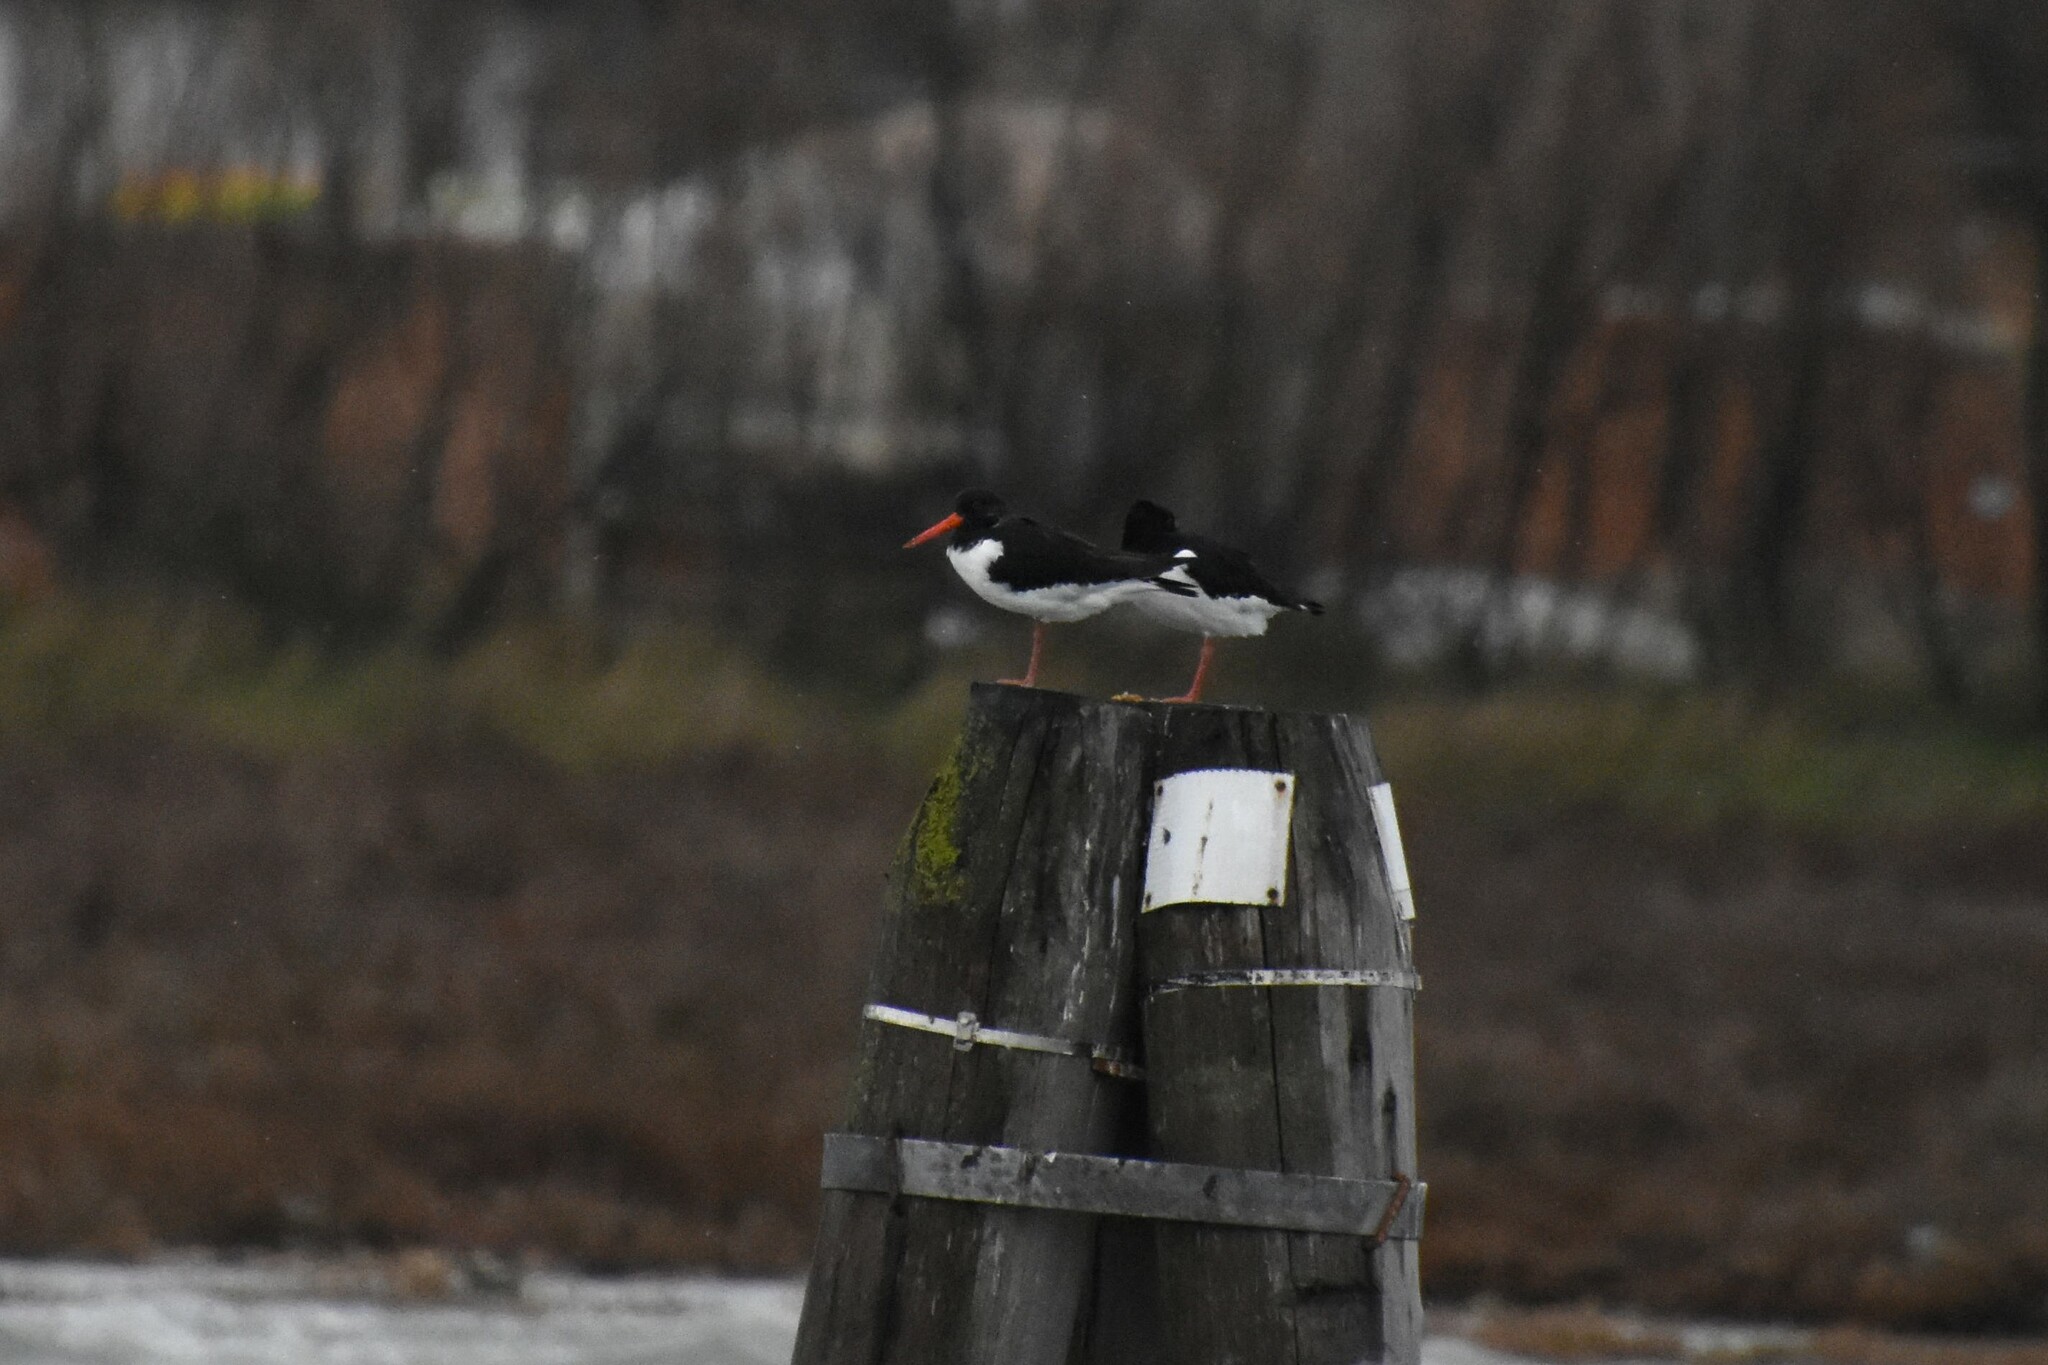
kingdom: Animalia
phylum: Chordata
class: Aves
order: Charadriiformes
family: Haematopodidae
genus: Haematopus
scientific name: Haematopus ostralegus
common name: Eurasian oystercatcher
